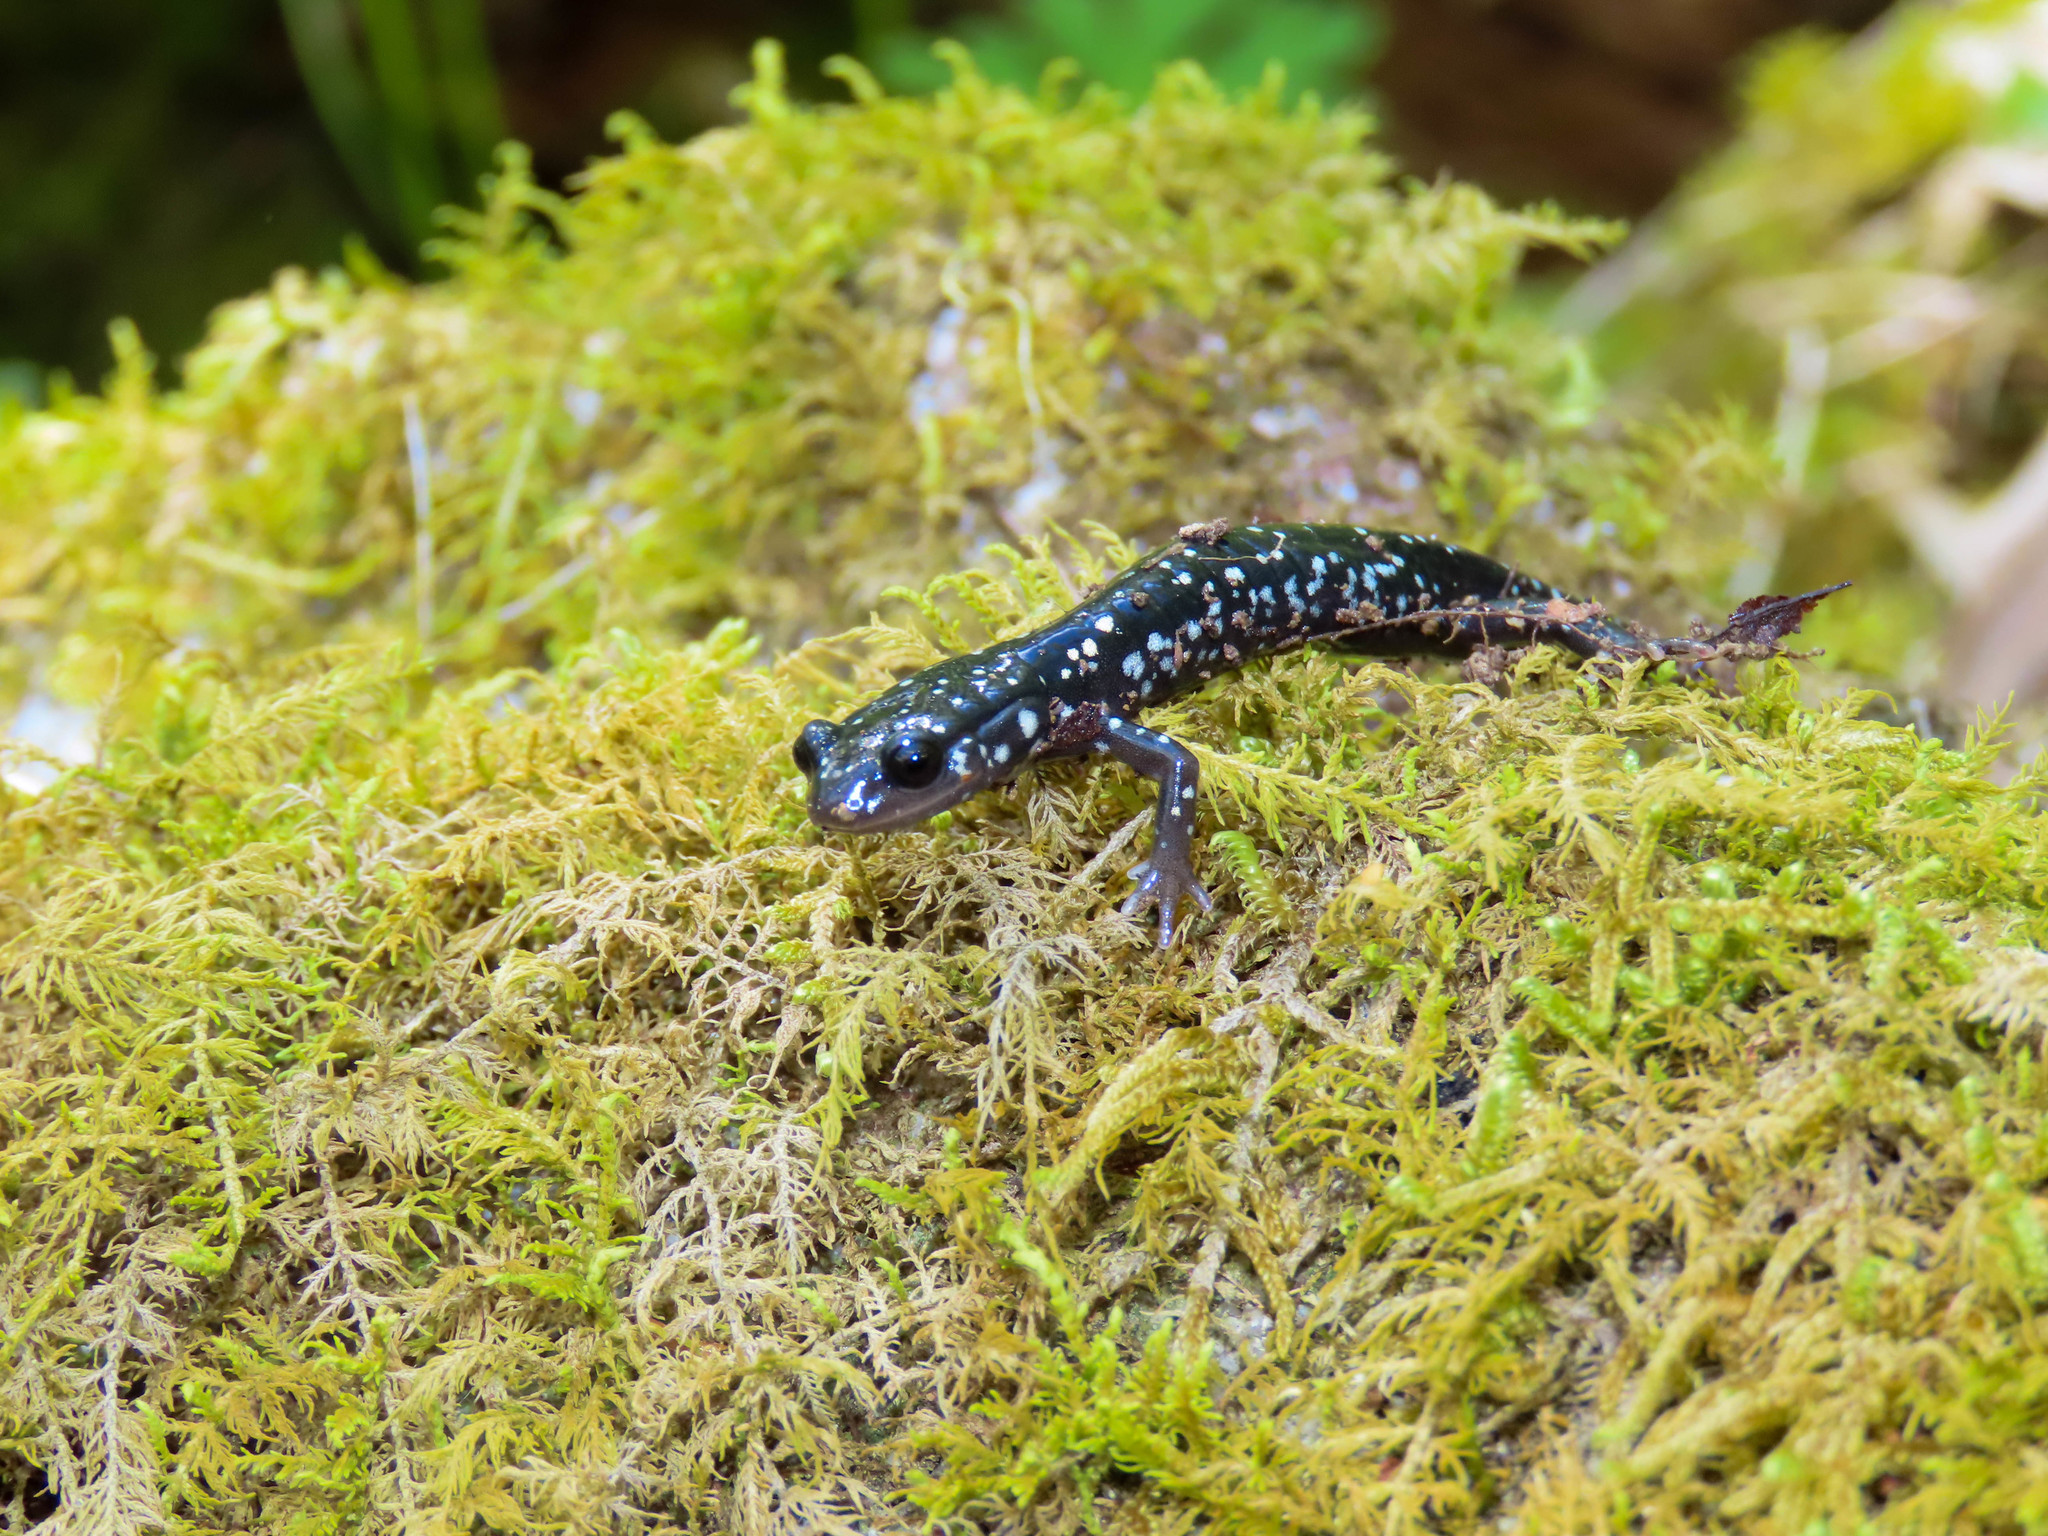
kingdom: Animalia
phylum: Chordata
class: Amphibia
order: Caudata
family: Plethodontidae
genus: Plethodon
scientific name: Plethodon glutinosus
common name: Northern slimy salamander
